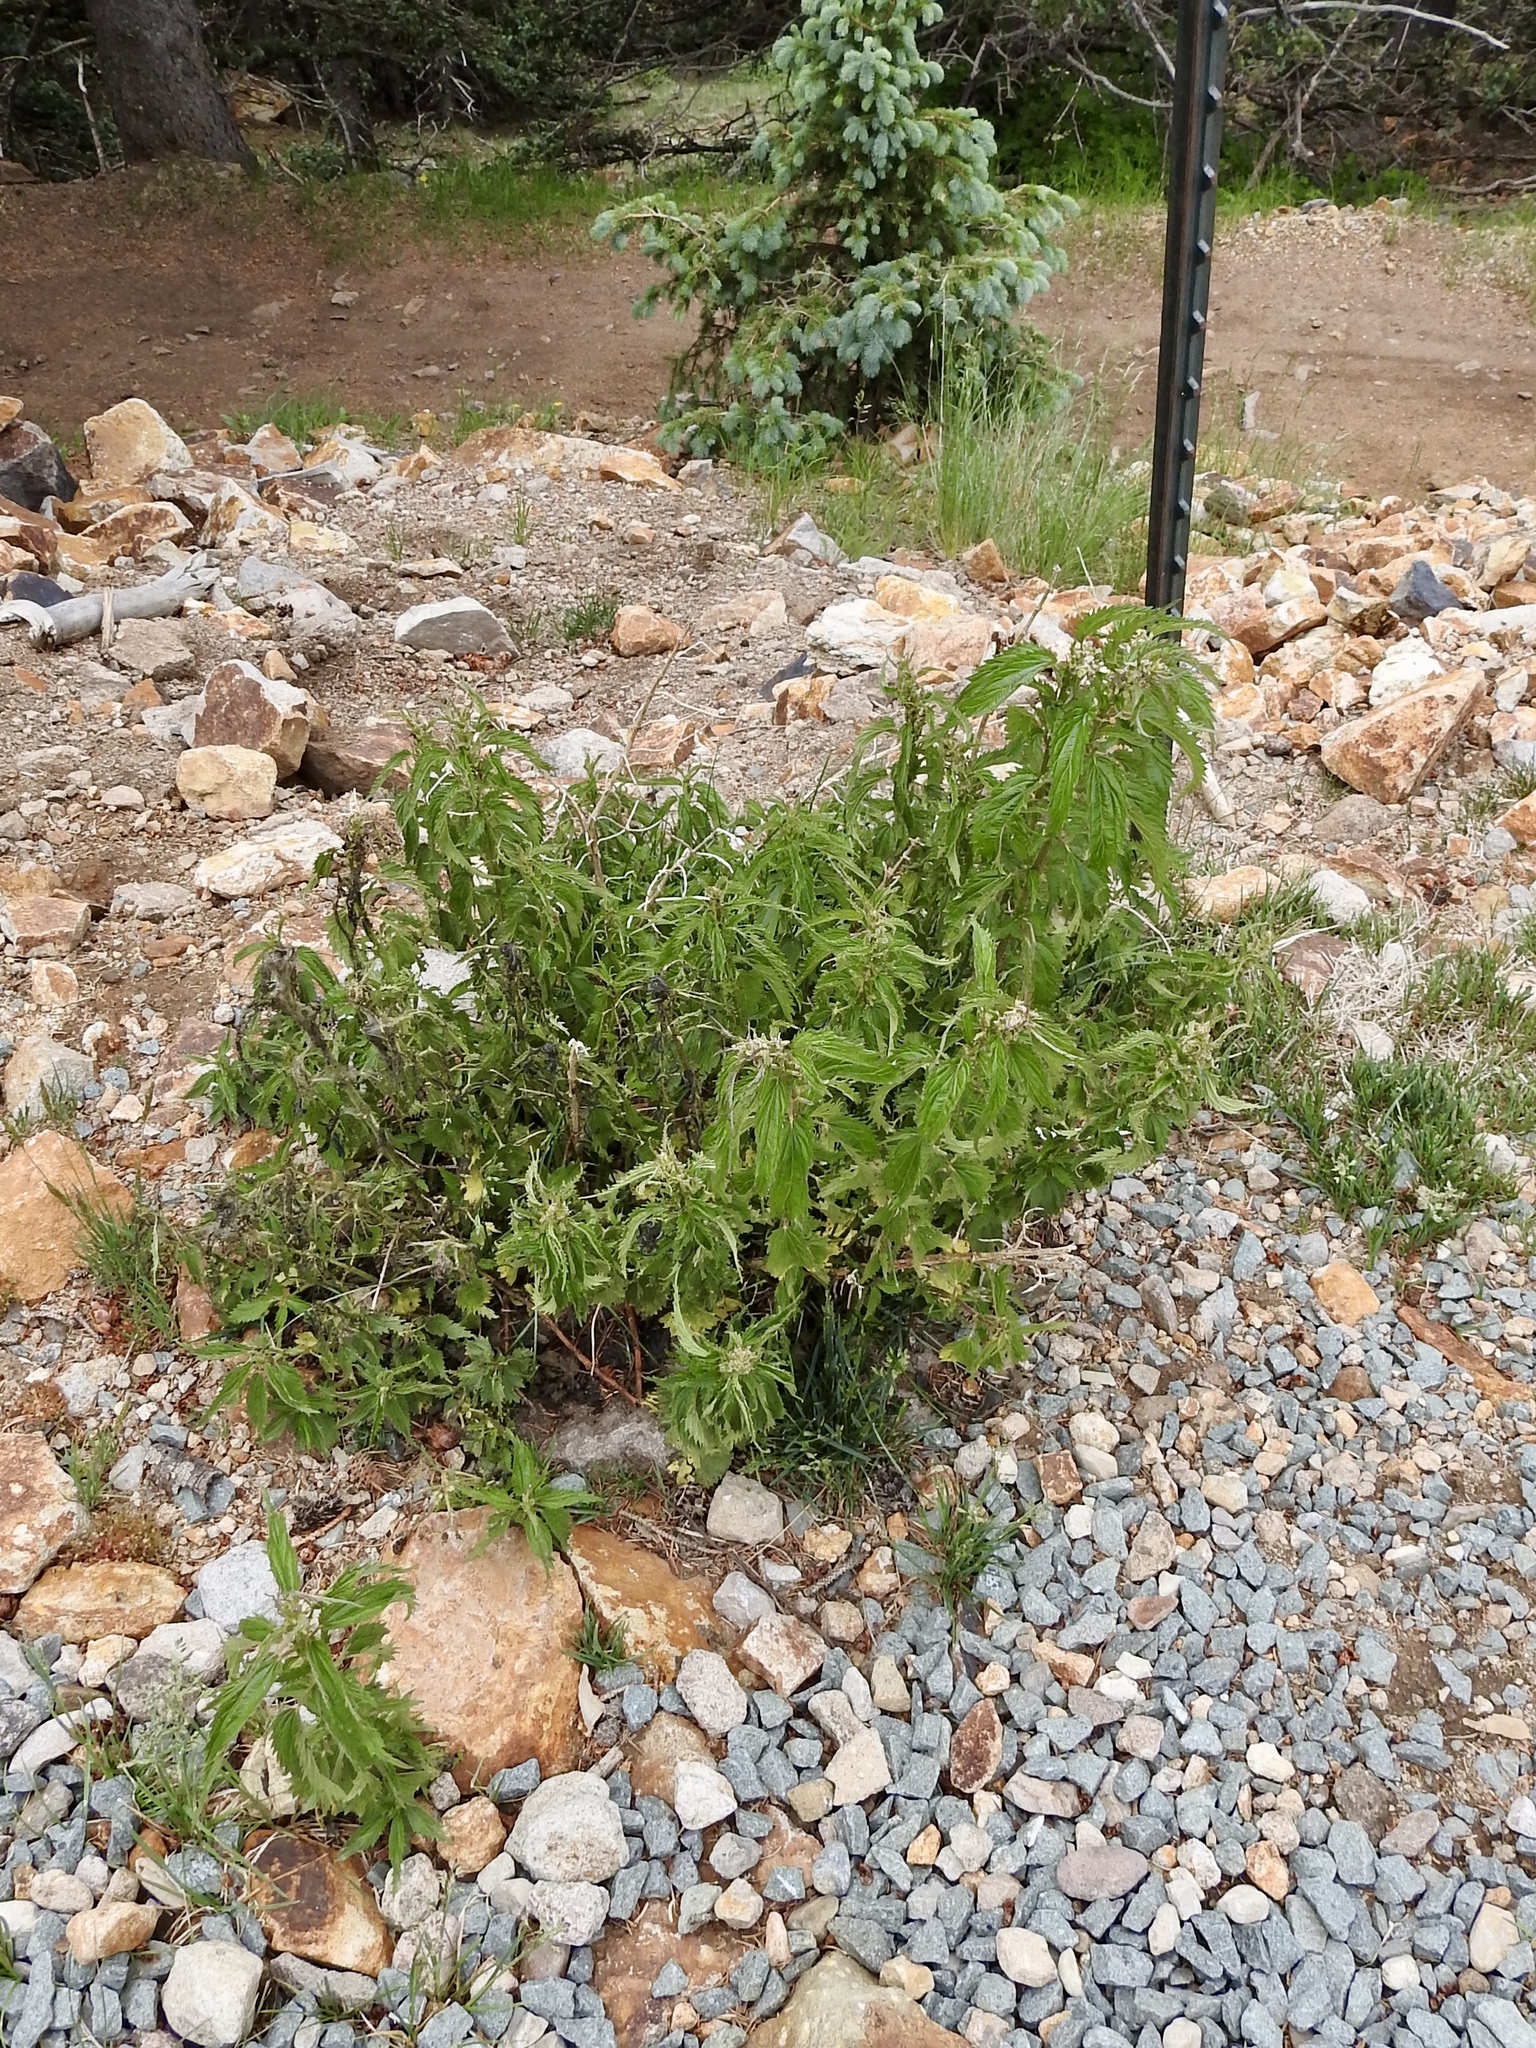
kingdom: Plantae
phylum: Tracheophyta
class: Magnoliopsida
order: Rosales
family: Urticaceae
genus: Urtica
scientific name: Urtica gracilis
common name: Slender stinging nettle
